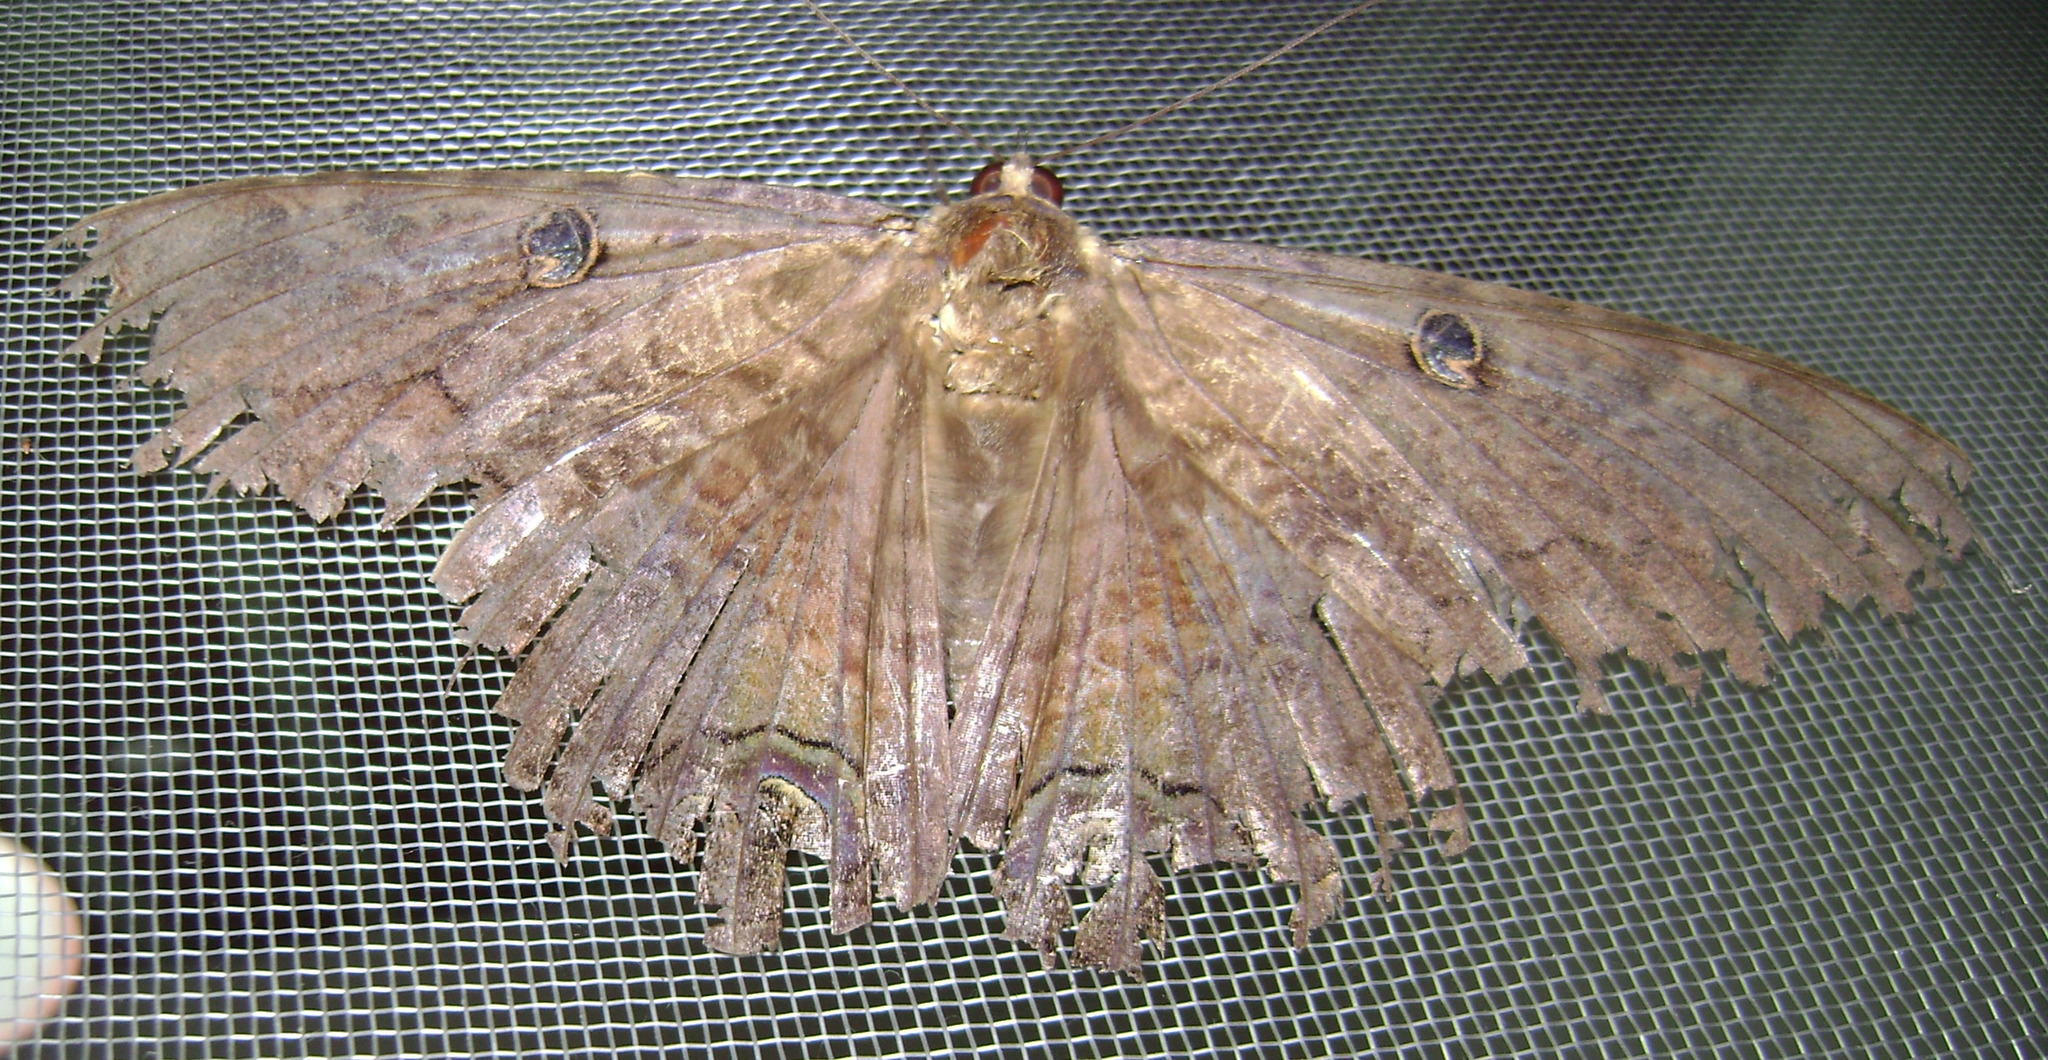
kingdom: Animalia
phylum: Arthropoda
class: Insecta
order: Lepidoptera
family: Erebidae
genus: Ascalapha
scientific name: Ascalapha odorata
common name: Black witch
